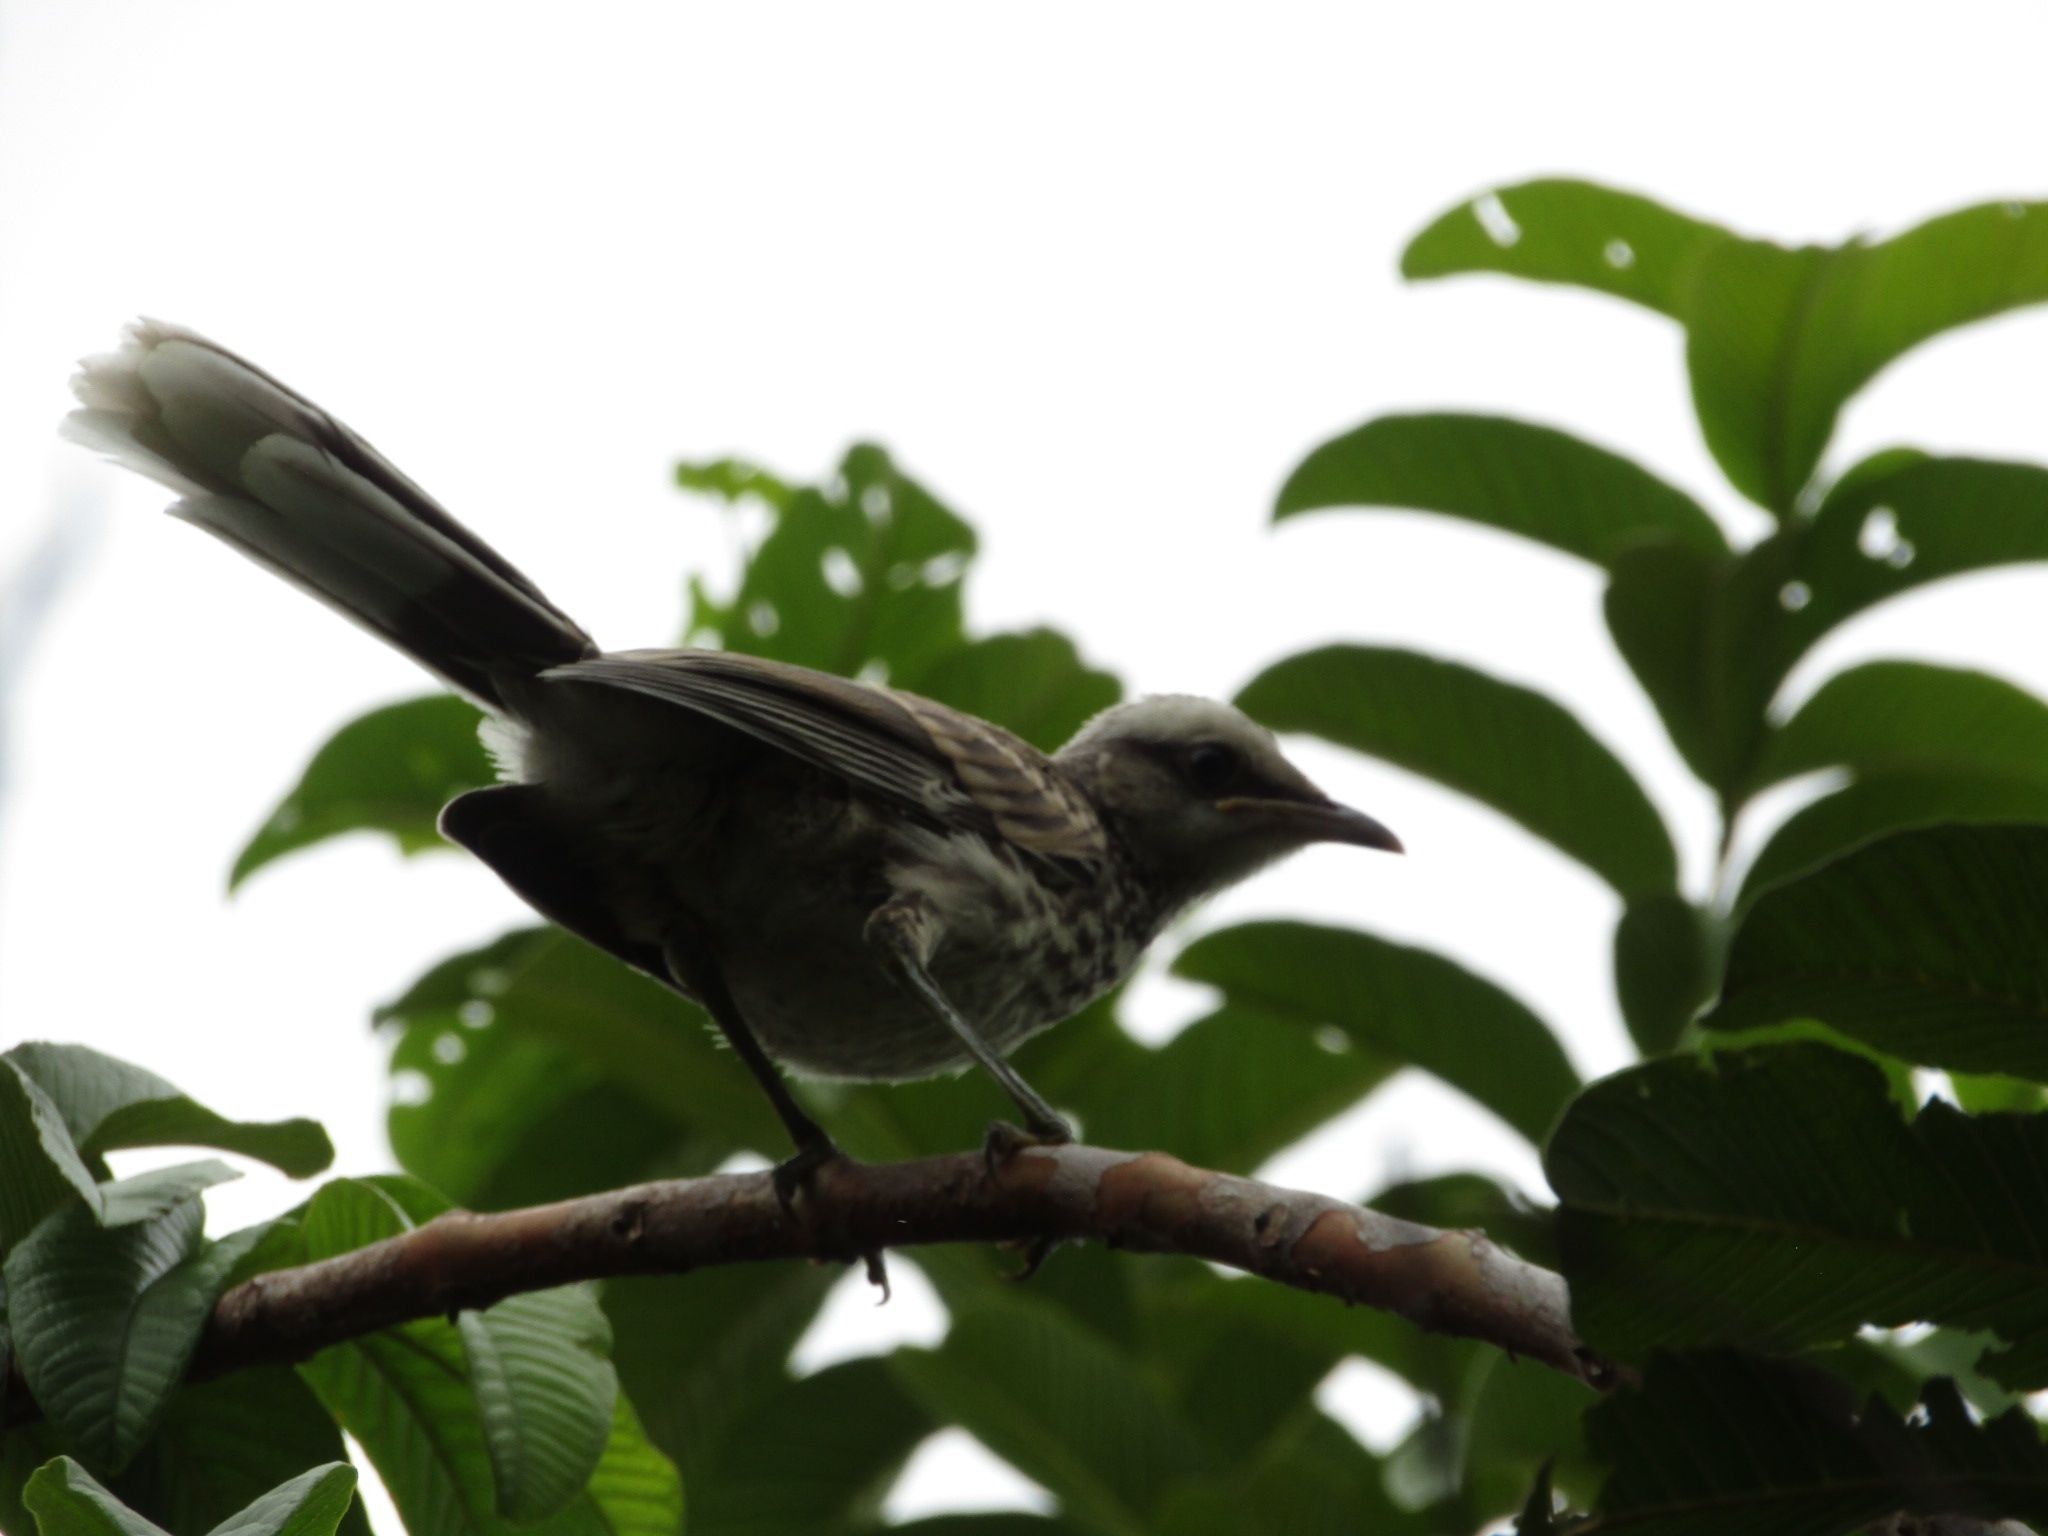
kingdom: Animalia
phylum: Chordata
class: Aves
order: Passeriformes
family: Mimidae
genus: Mimus
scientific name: Mimus saturninus
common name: Chalk-browed mockingbird
